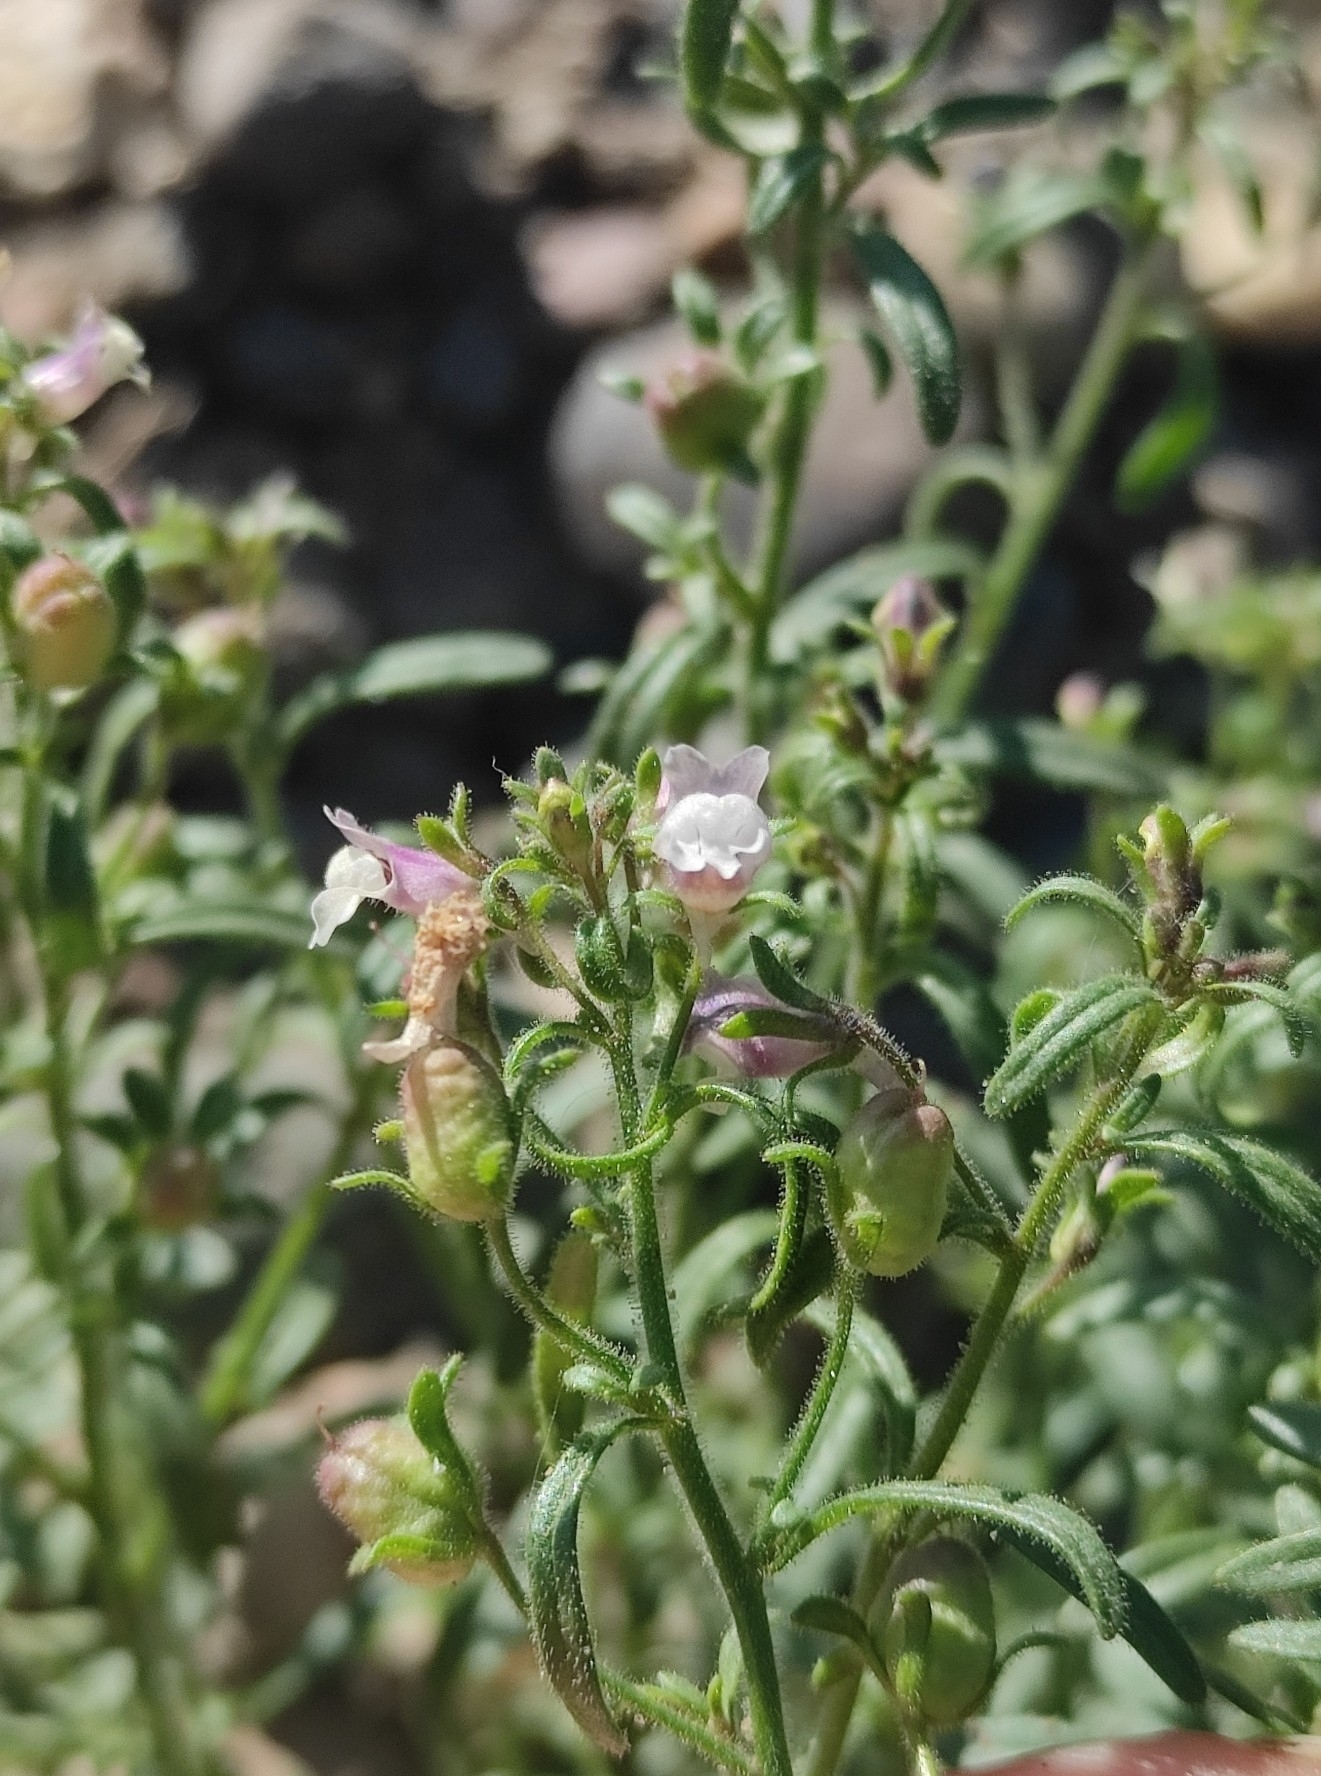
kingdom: Plantae
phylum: Tracheophyta
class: Magnoliopsida
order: Lamiales
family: Plantaginaceae
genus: Chaenorhinum
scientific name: Chaenorhinum minus
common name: Dwarf snapdragon
